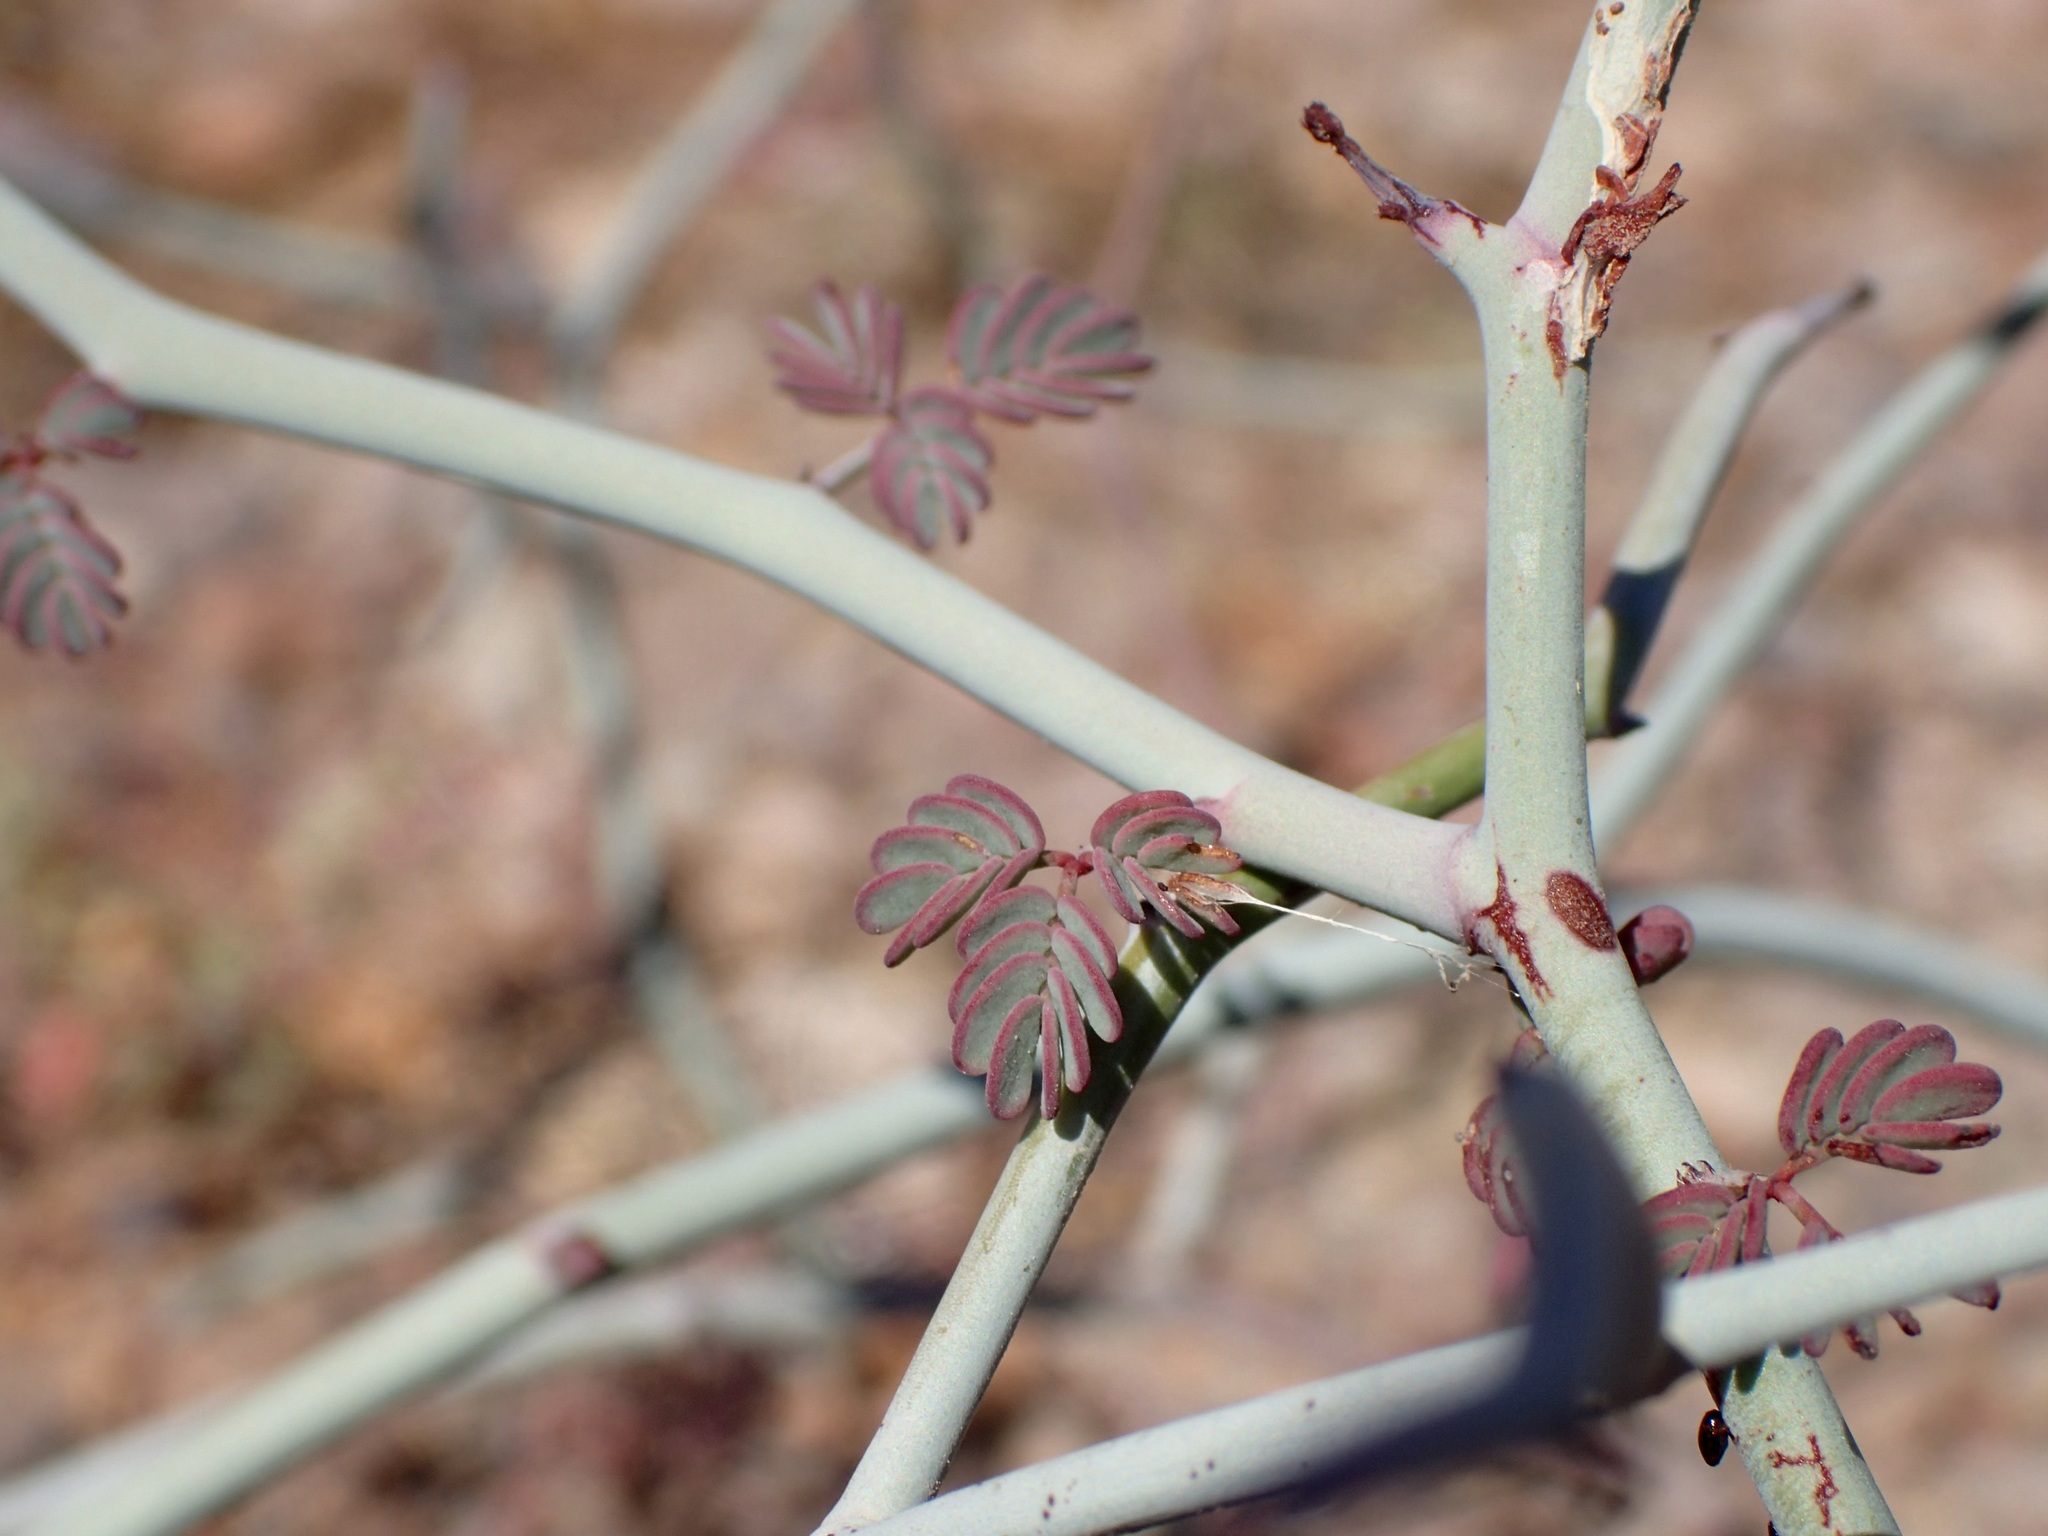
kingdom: Plantae
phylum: Tracheophyta
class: Magnoliopsida
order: Fabales
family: Fabaceae
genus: Hoffmannseggia
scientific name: Hoffmannseggia intricata
